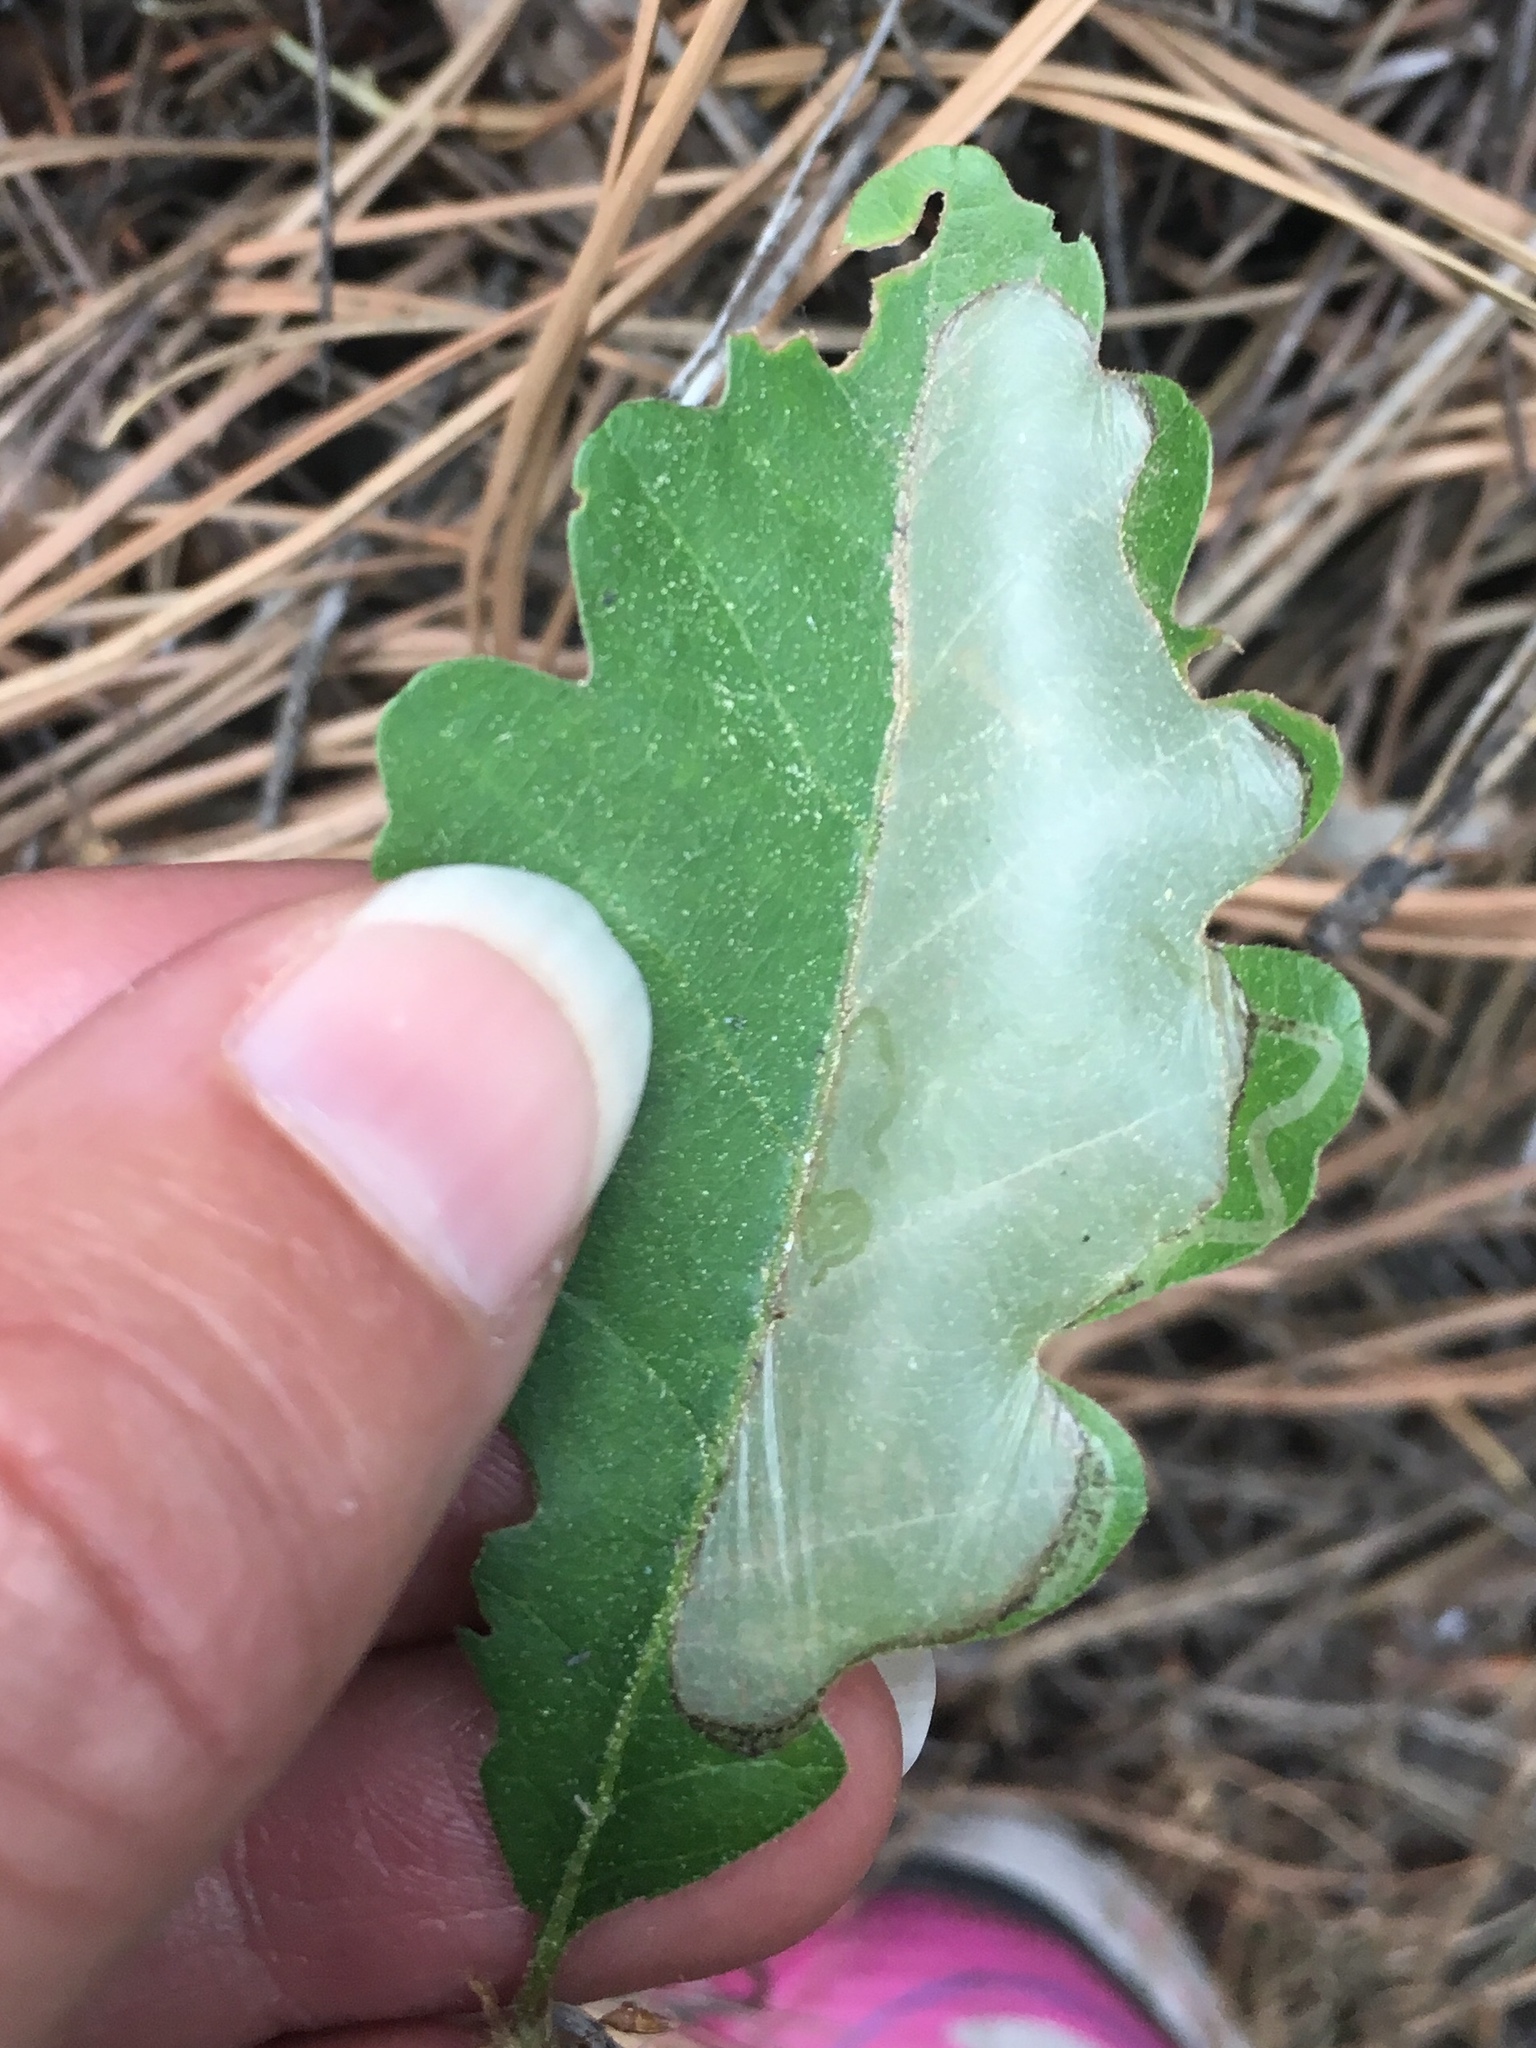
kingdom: Plantae
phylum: Tracheophyta
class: Magnoliopsida
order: Fagales
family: Fagaceae
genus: Quercus
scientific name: Quercus gambelii
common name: Gambel oak
